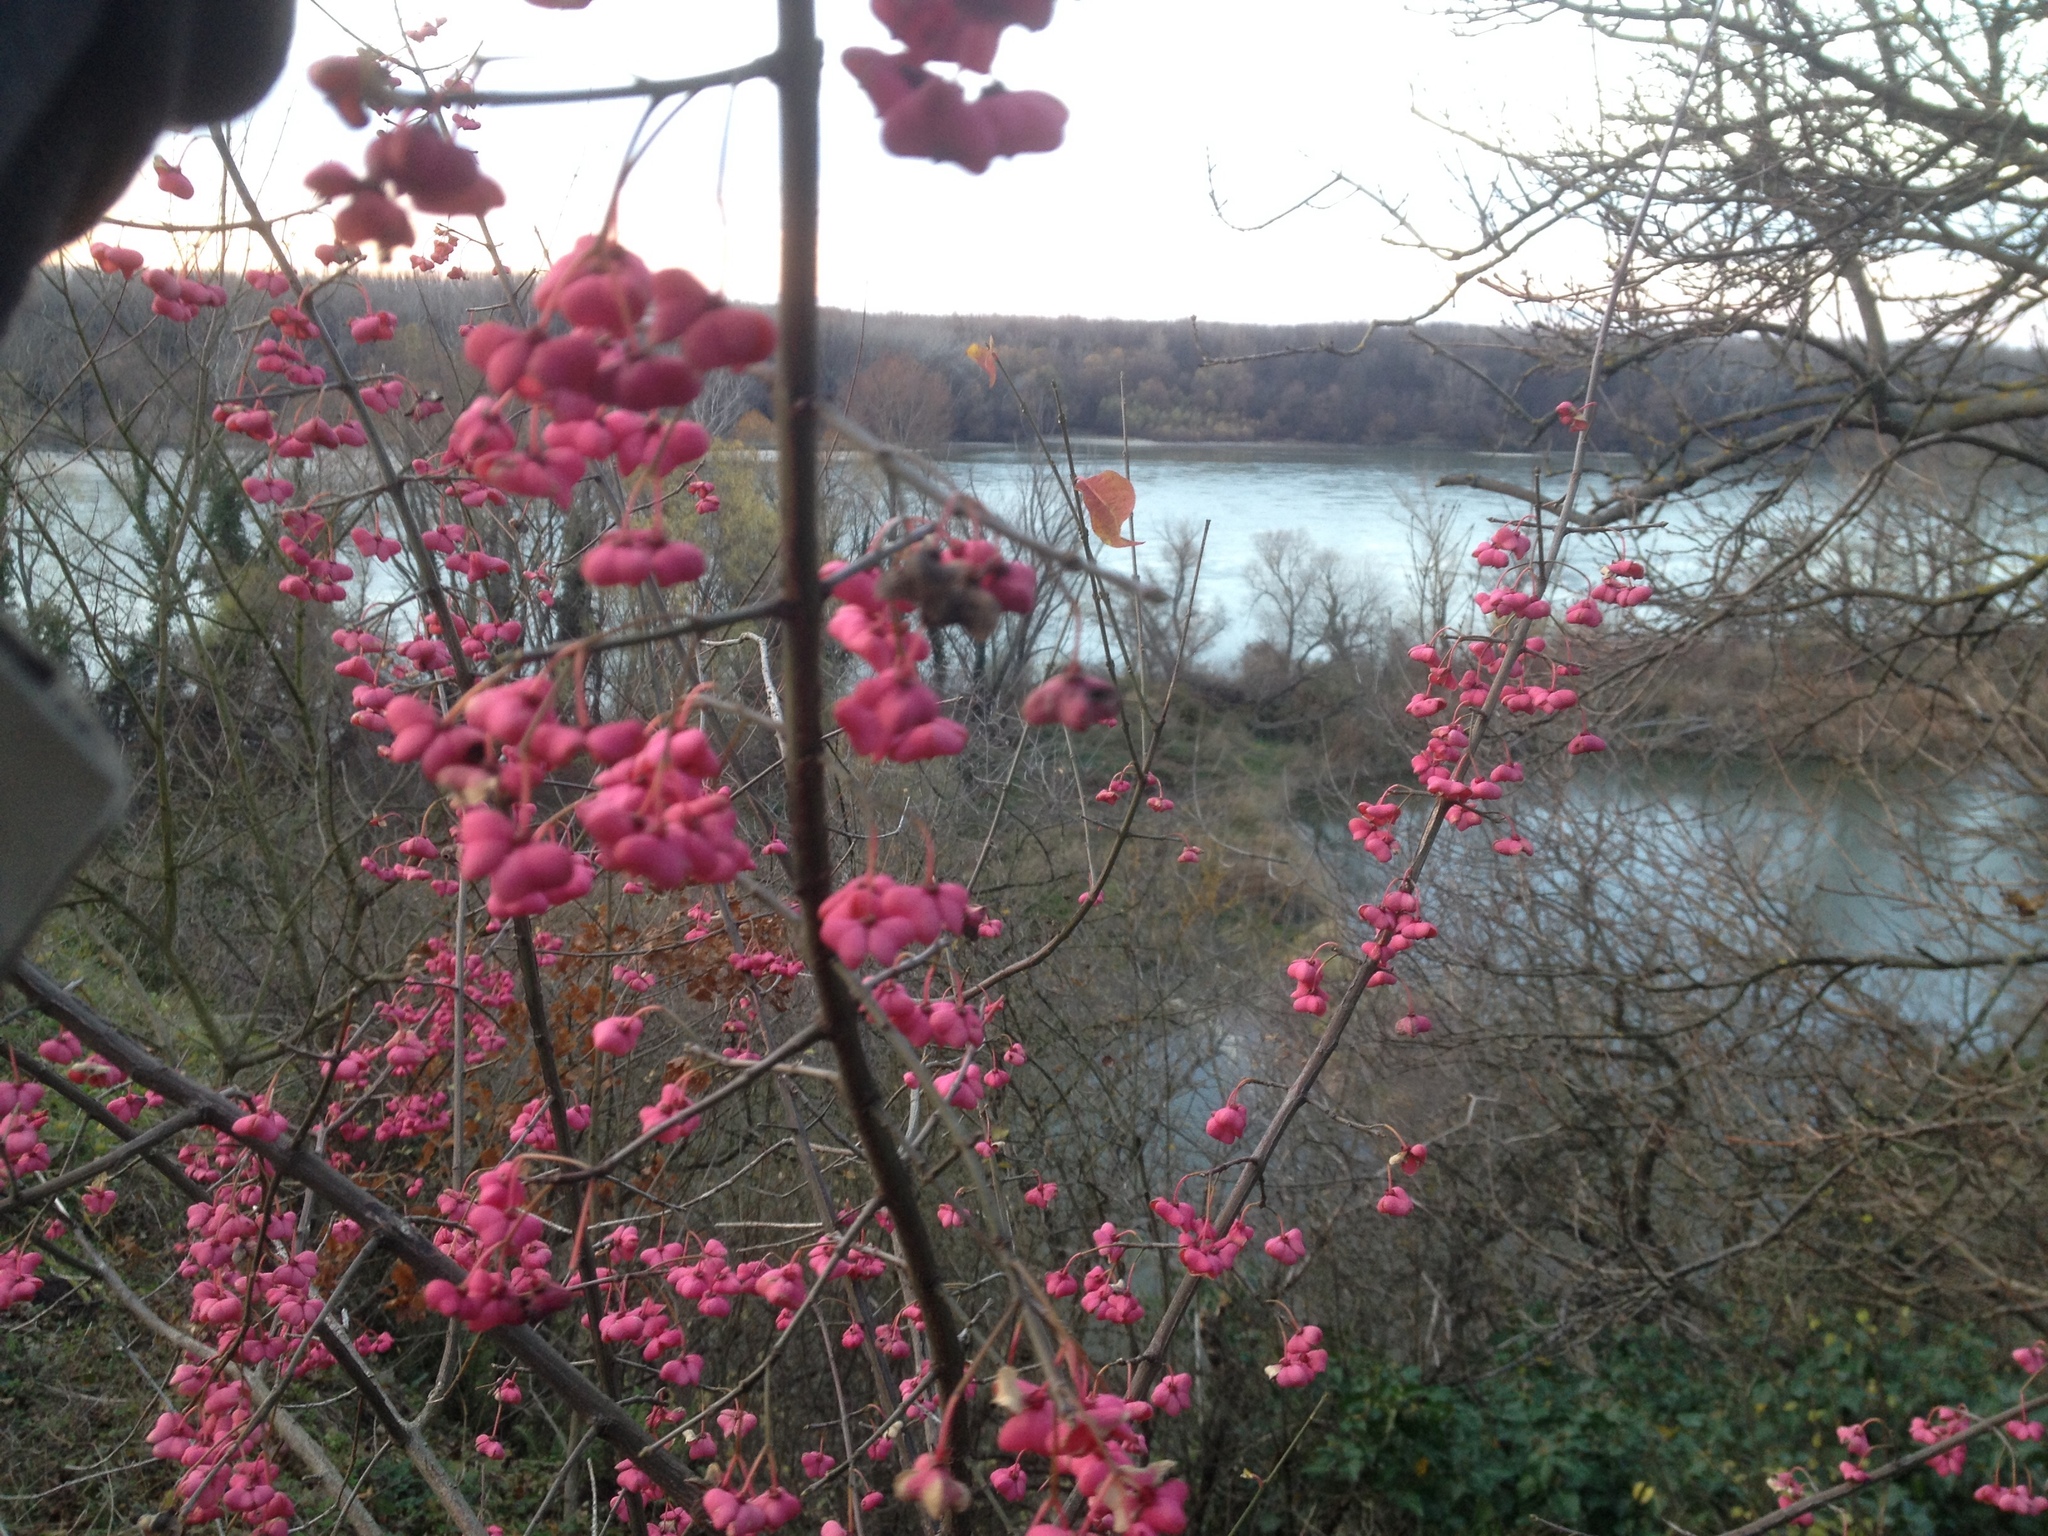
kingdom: Plantae
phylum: Tracheophyta
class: Magnoliopsida
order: Celastrales
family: Celastraceae
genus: Euonymus
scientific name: Euonymus europaeus
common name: Spindle
